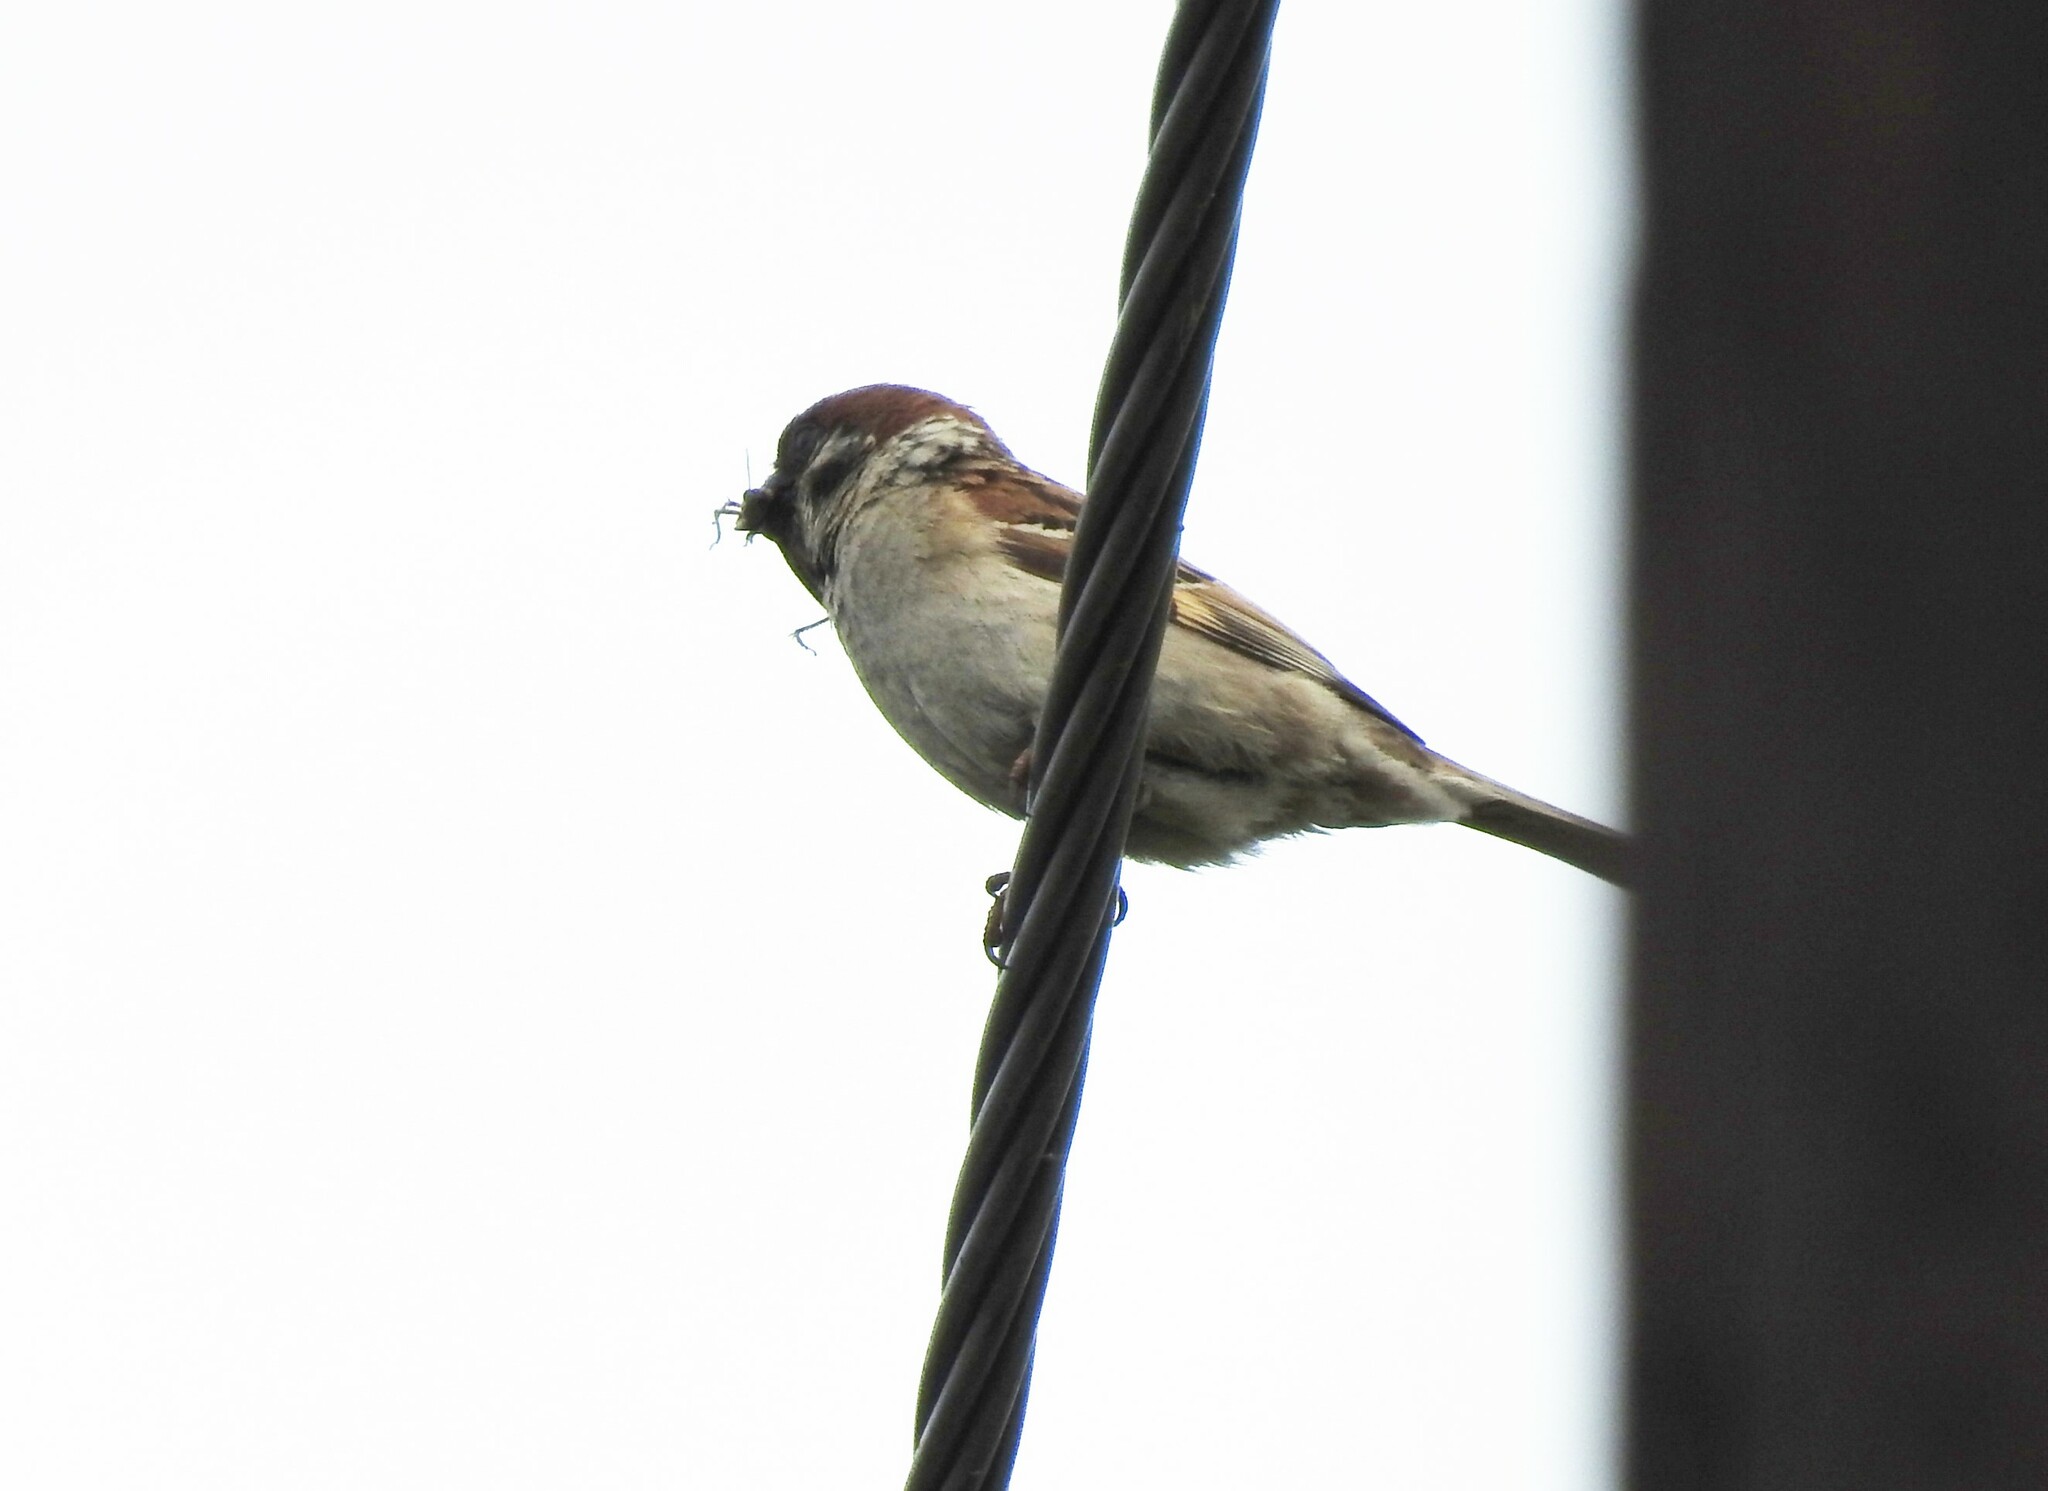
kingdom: Animalia
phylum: Chordata
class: Aves
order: Passeriformes
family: Passeridae
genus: Passer
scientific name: Passer montanus
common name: Eurasian tree sparrow
